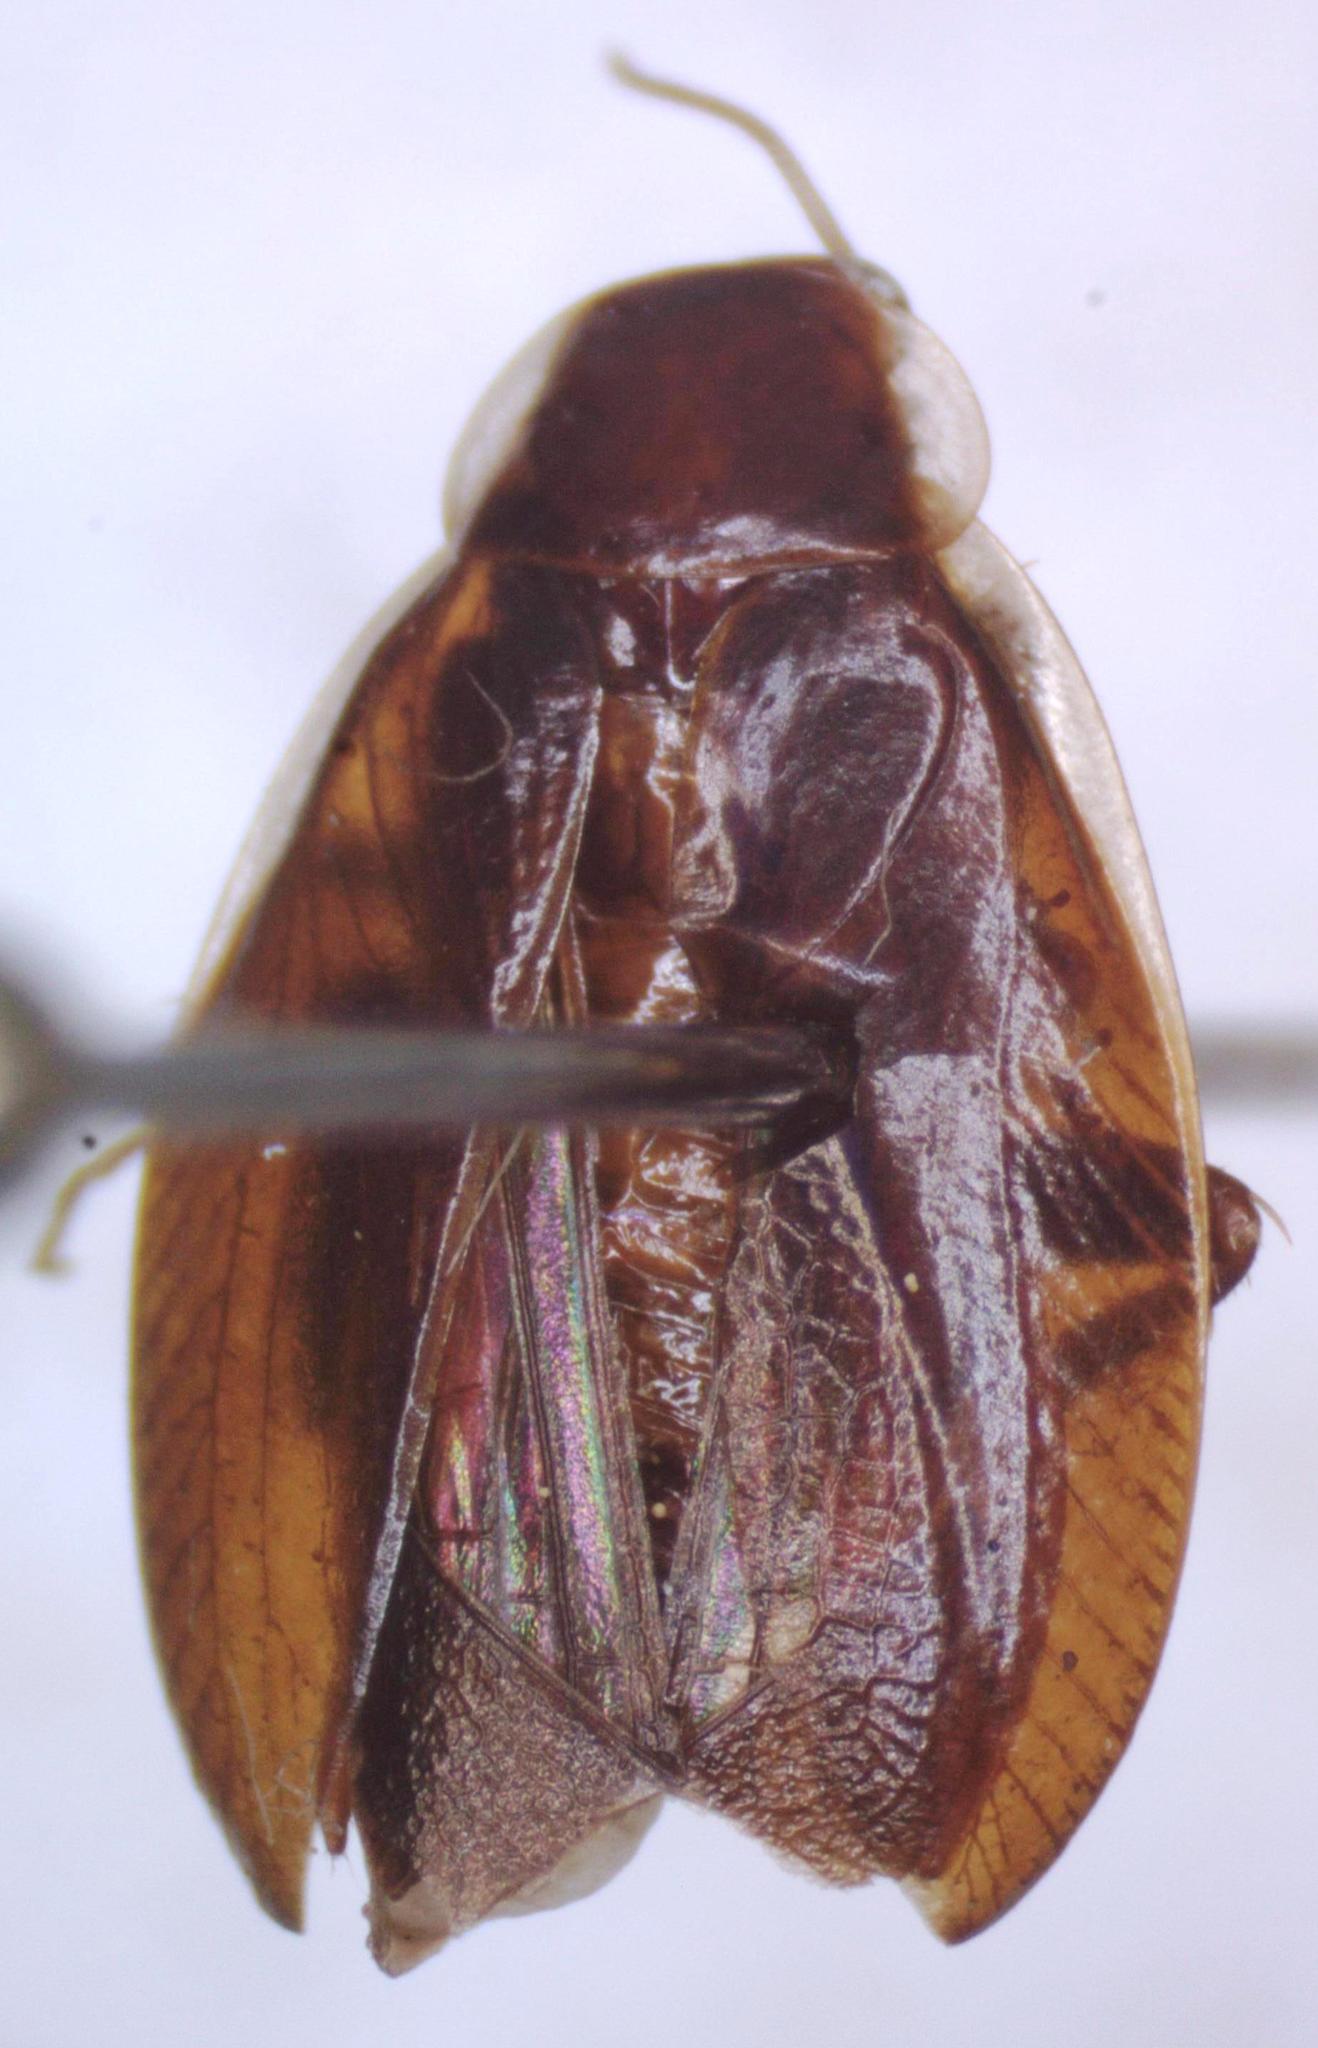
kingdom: Animalia
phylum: Arthropoda
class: Insecta
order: Blattodea
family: Ectobiidae
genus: Riatia
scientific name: Riatia
